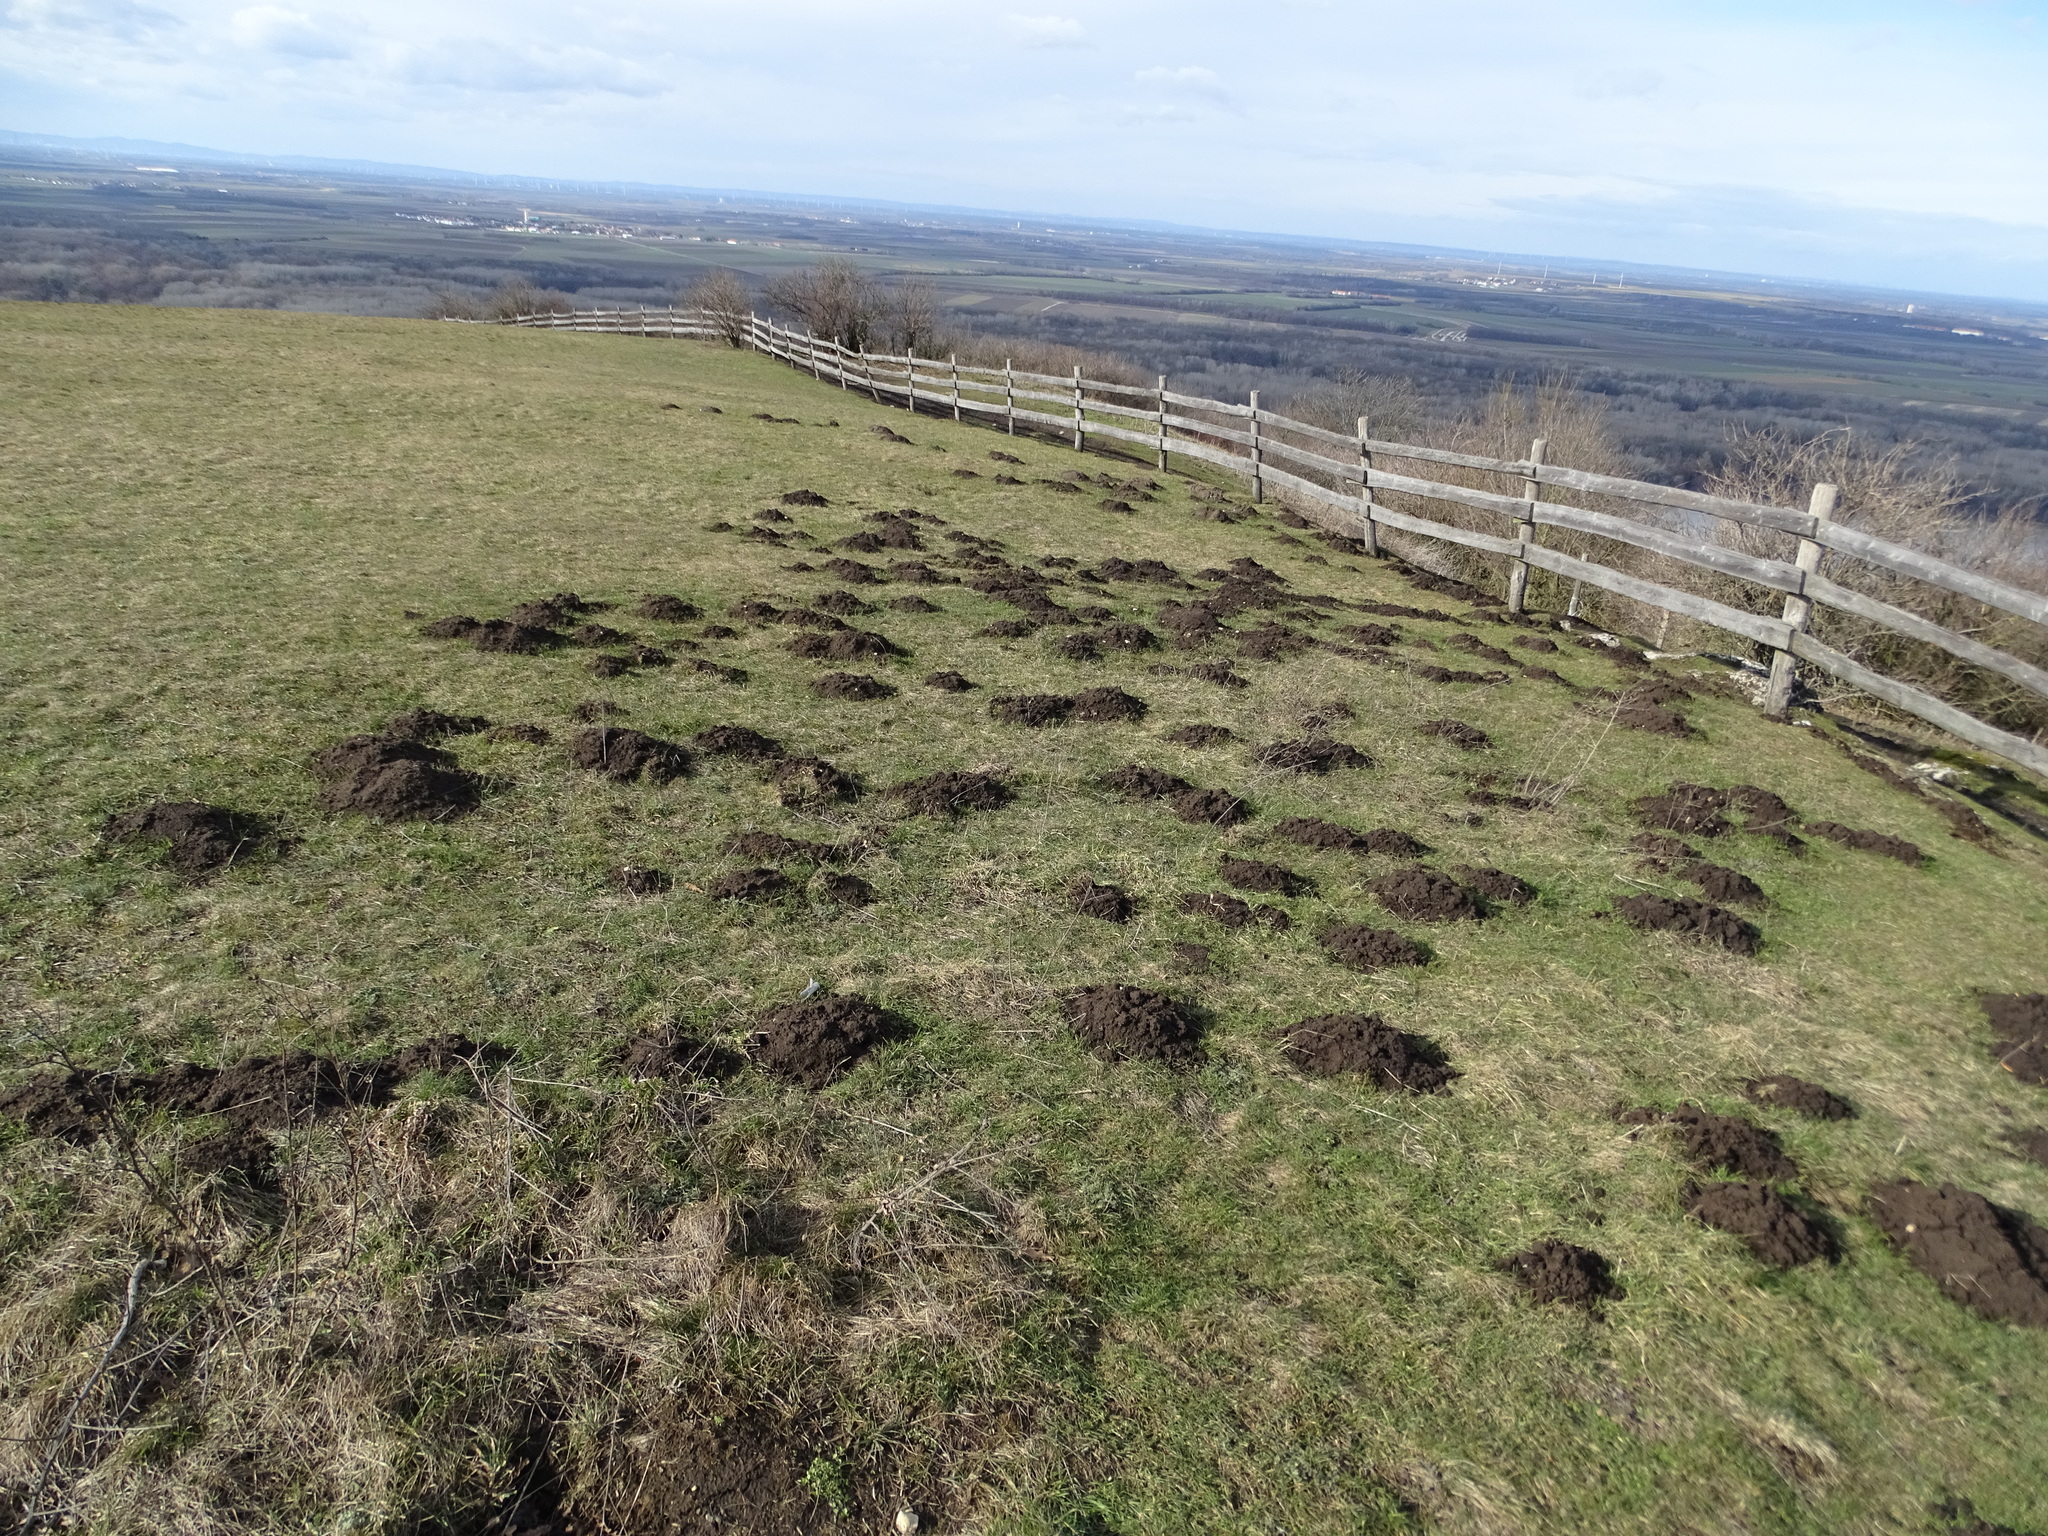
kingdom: Animalia
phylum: Chordata
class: Mammalia
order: Soricomorpha
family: Talpidae
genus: Talpa
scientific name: Talpa europaea
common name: European mole
